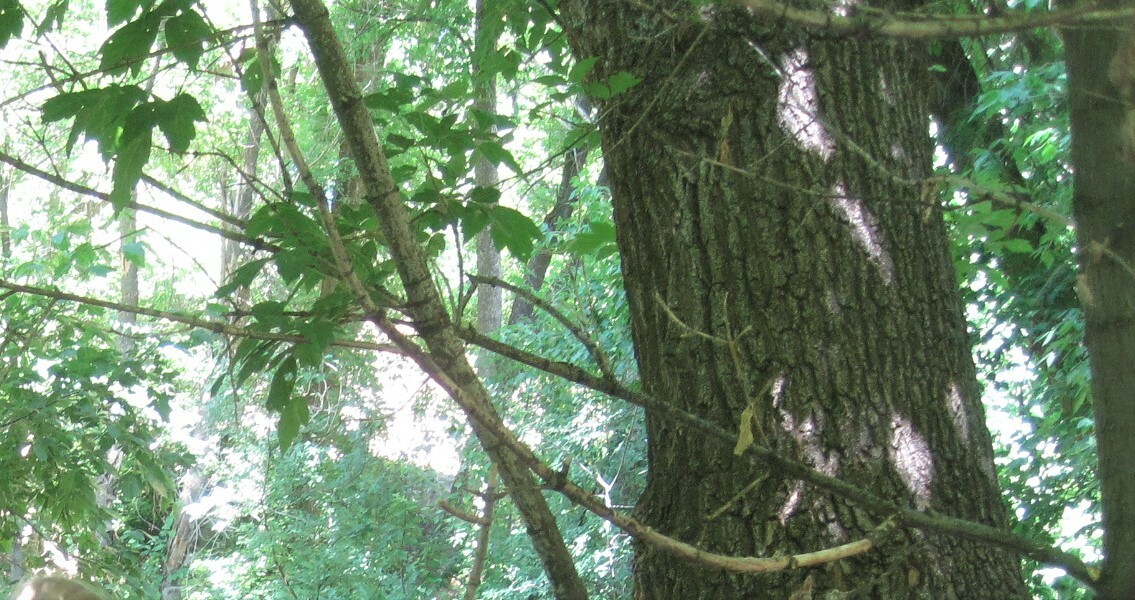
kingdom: Plantae
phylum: Tracheophyta
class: Magnoliopsida
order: Sapindales
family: Sapindaceae
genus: Acer
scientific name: Acer negundo
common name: Ashleaf maple
